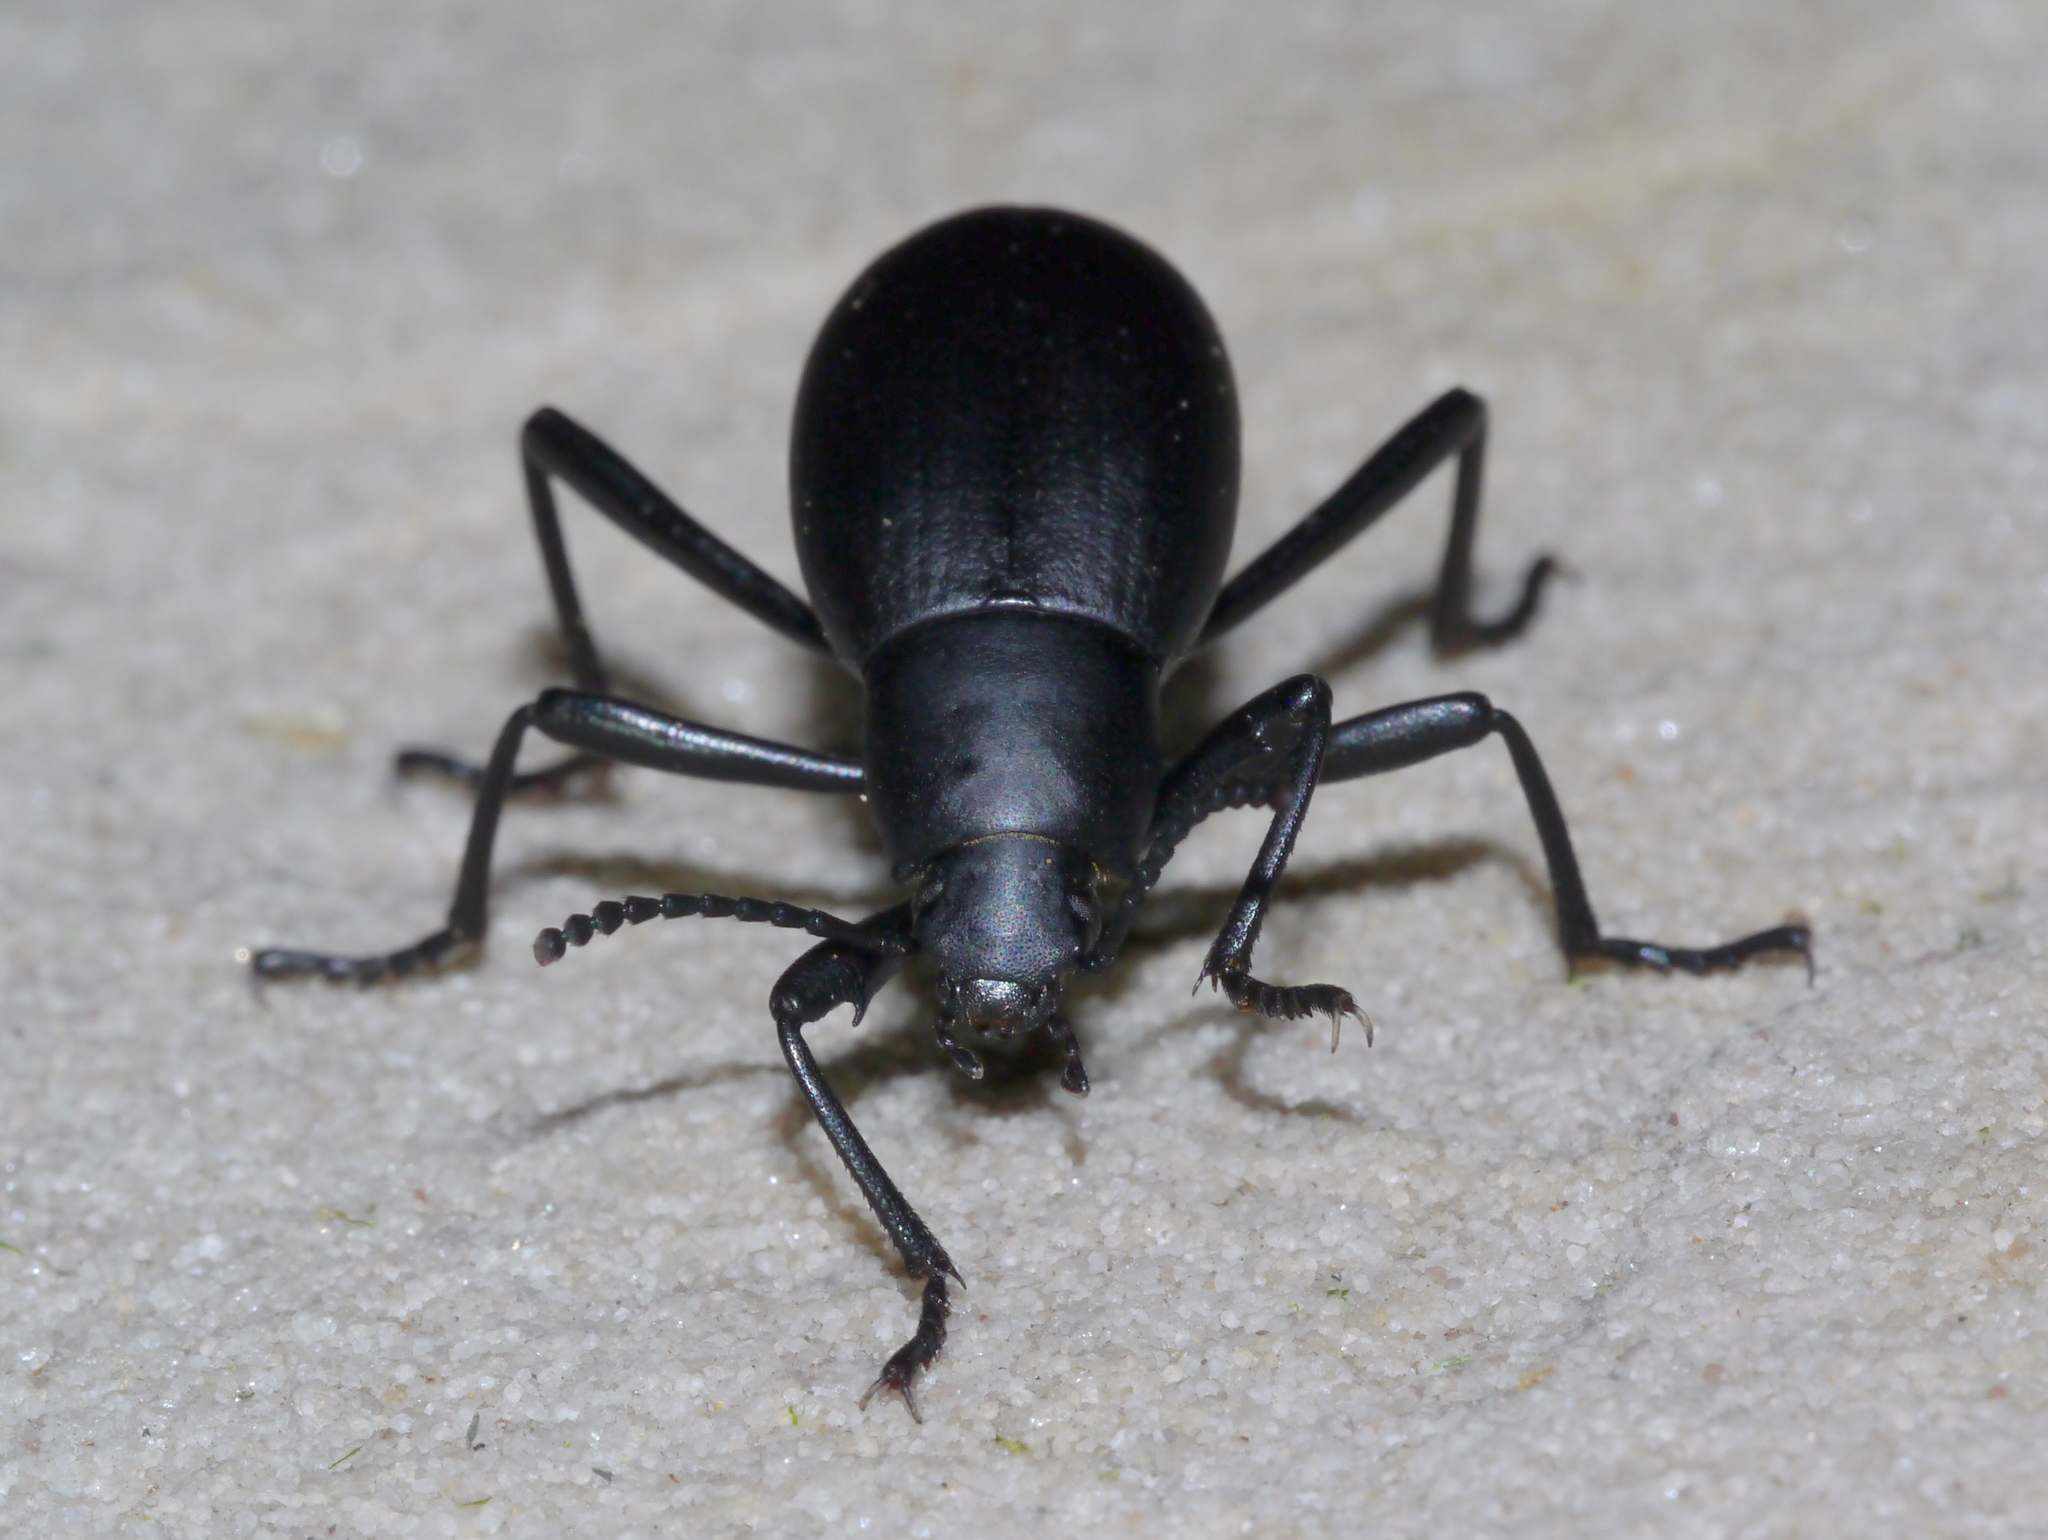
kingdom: Animalia
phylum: Arthropoda
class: Insecta
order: Coleoptera
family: Tenebrionidae
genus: Eleodes
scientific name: Eleodes subnitens
